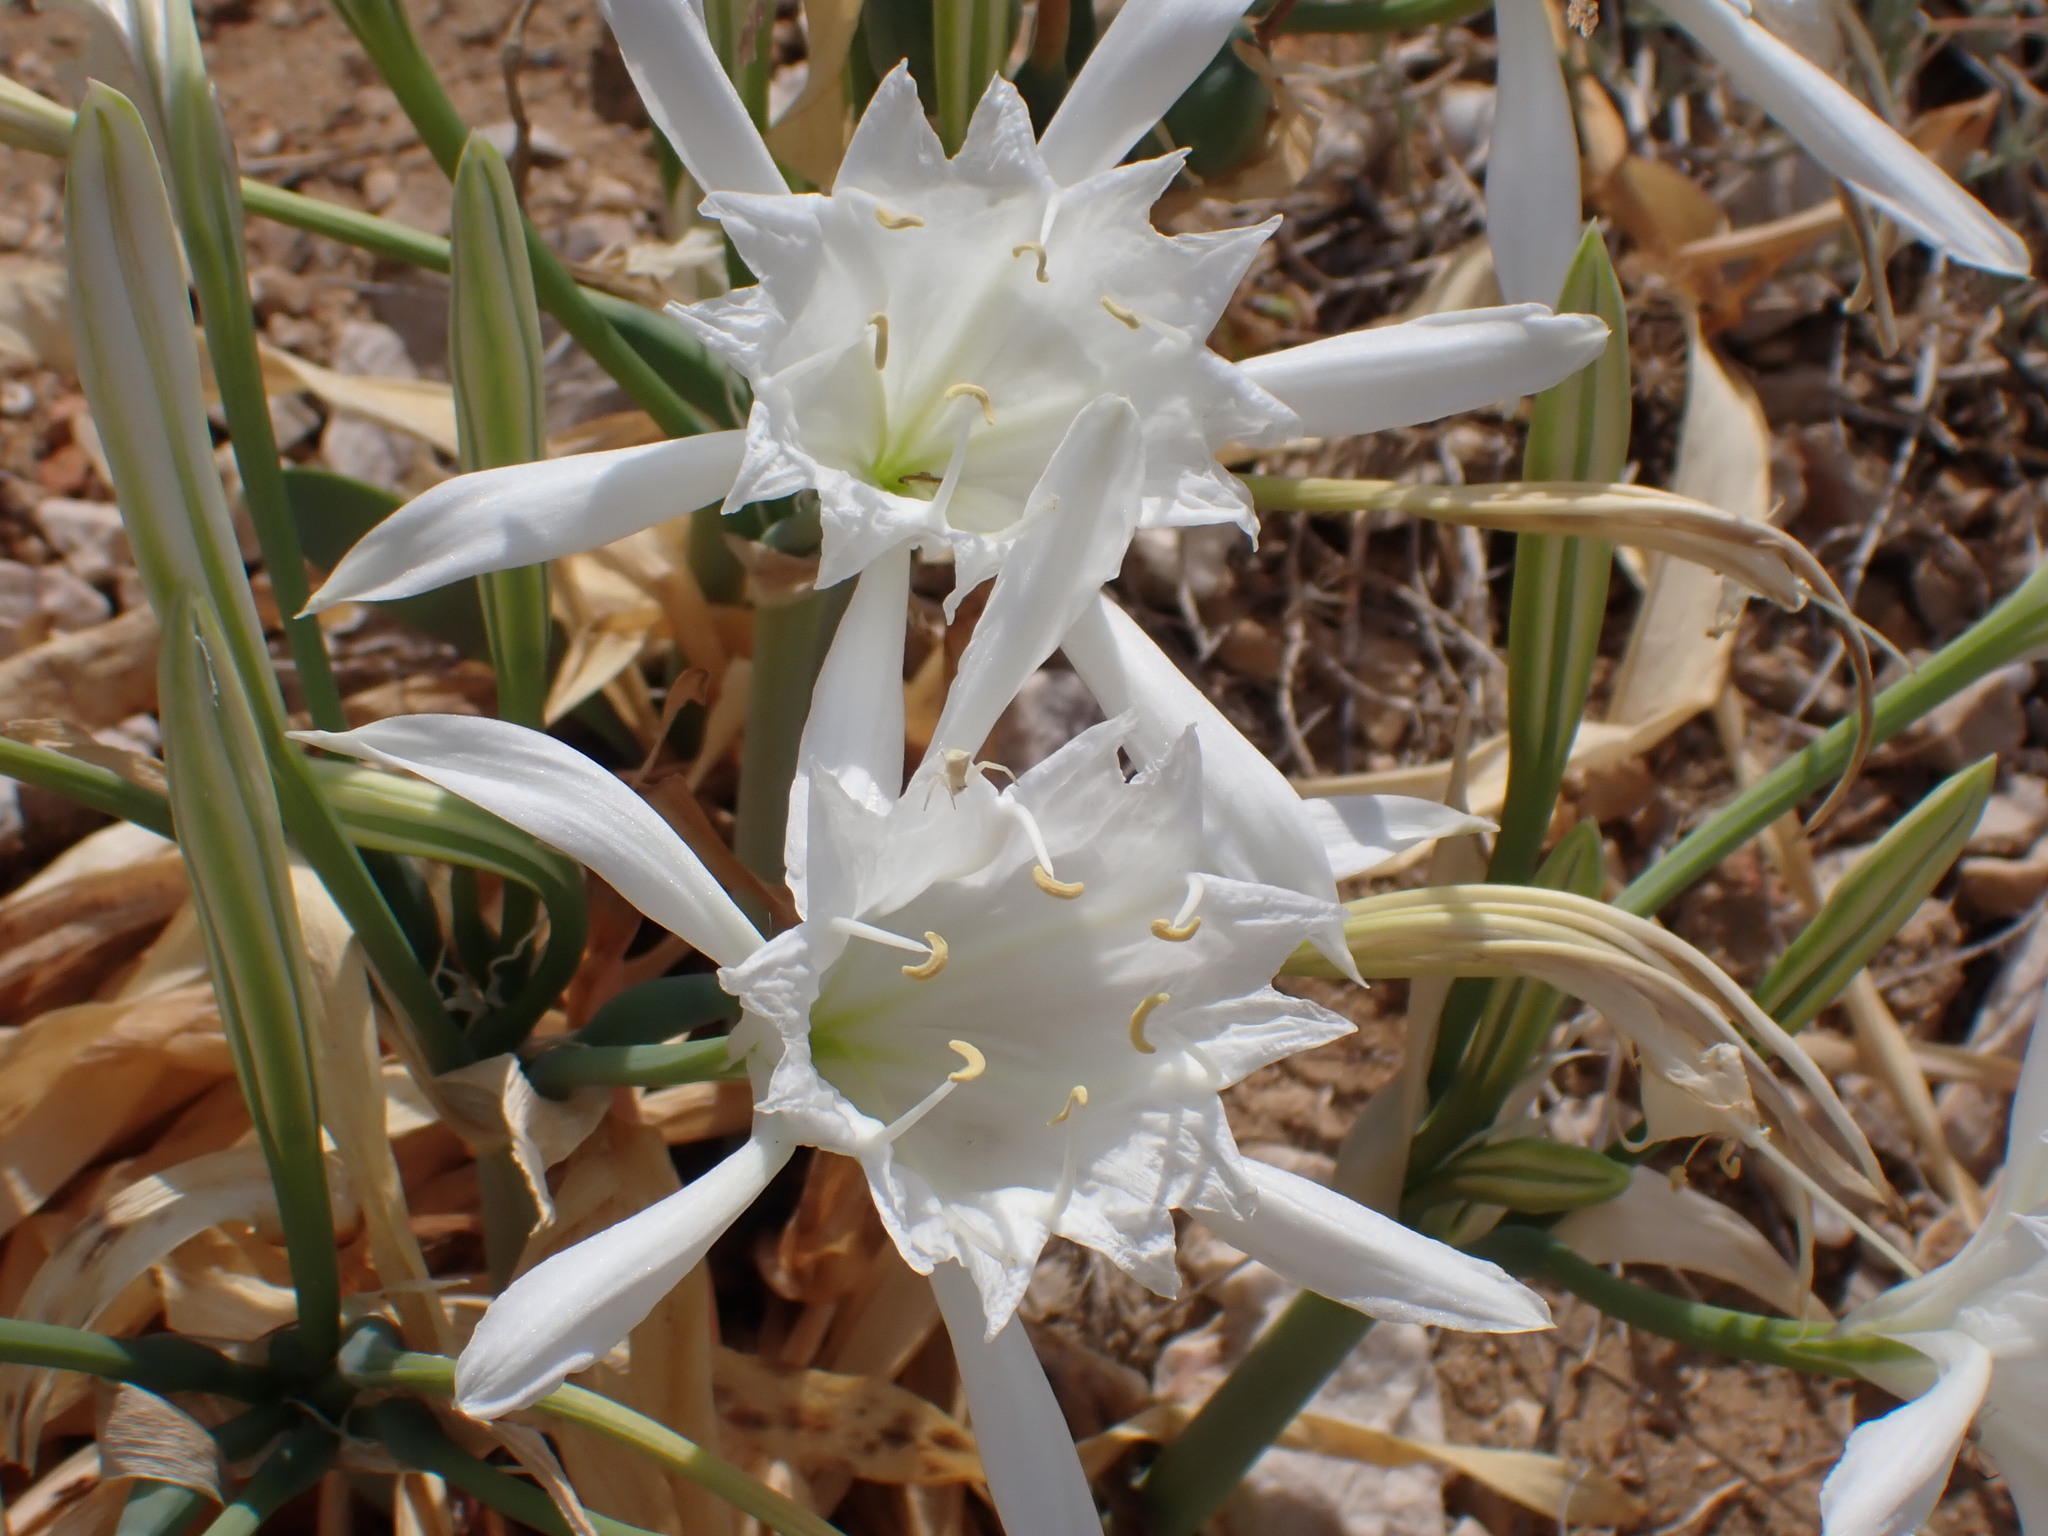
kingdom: Plantae
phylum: Tracheophyta
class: Liliopsida
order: Asparagales
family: Amaryllidaceae
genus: Pancratium
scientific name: Pancratium maritimum
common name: Sea-daffodil
